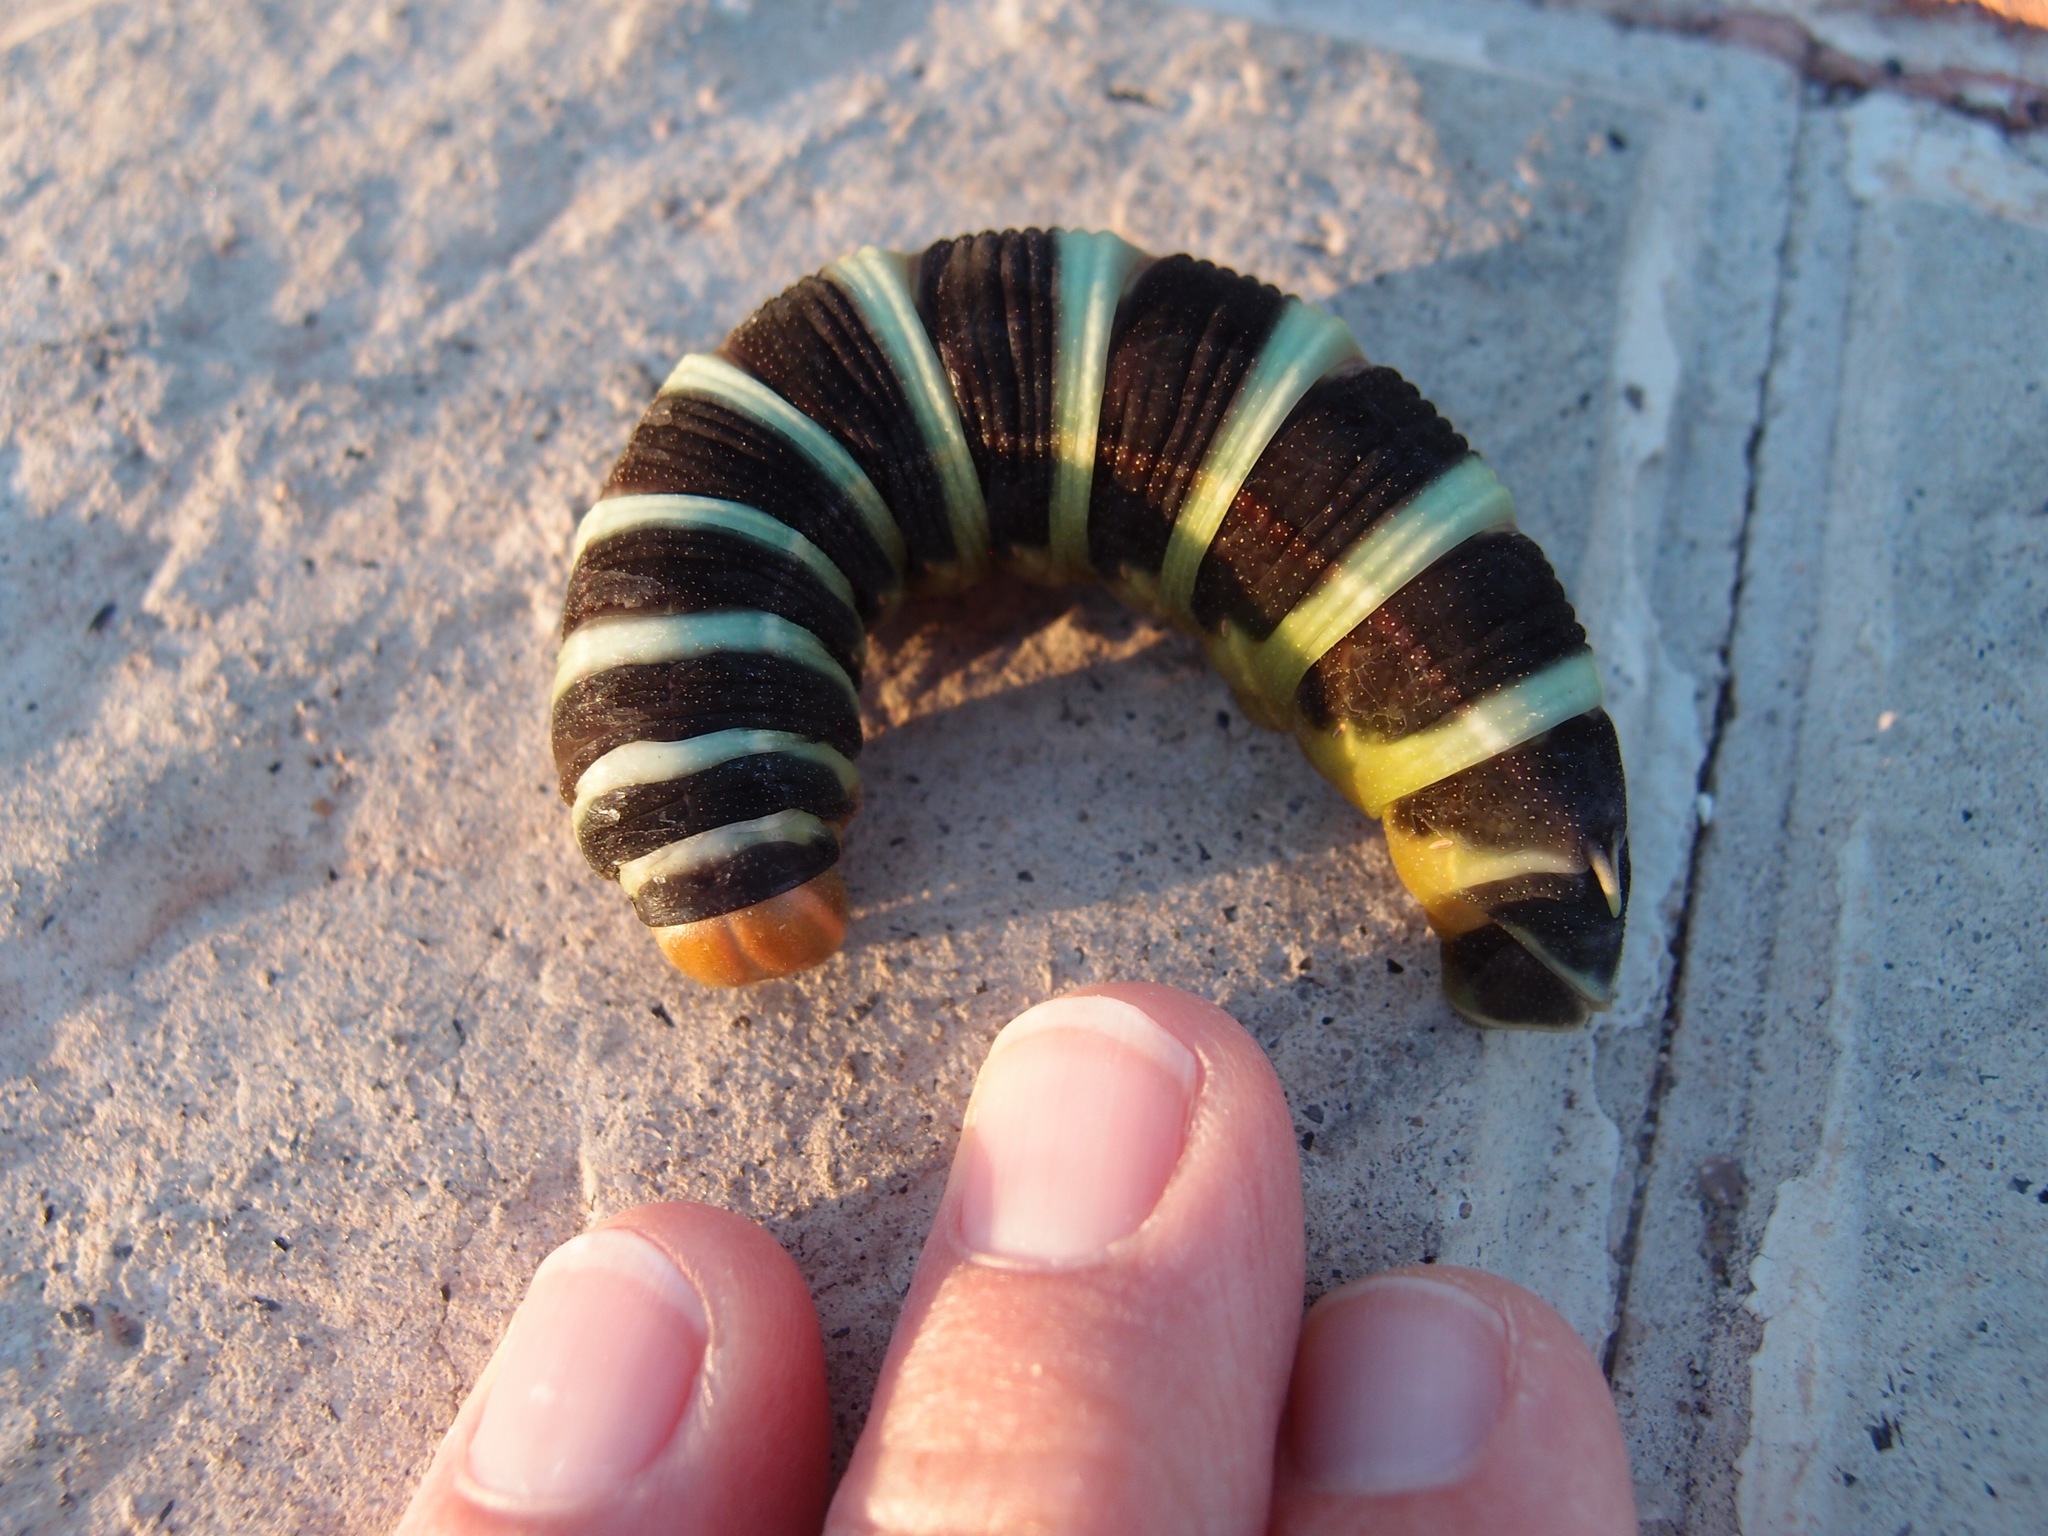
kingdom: Animalia
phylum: Arthropoda
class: Insecta
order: Lepidoptera
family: Sphingidae
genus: Pachylia
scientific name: Pachylia syces
